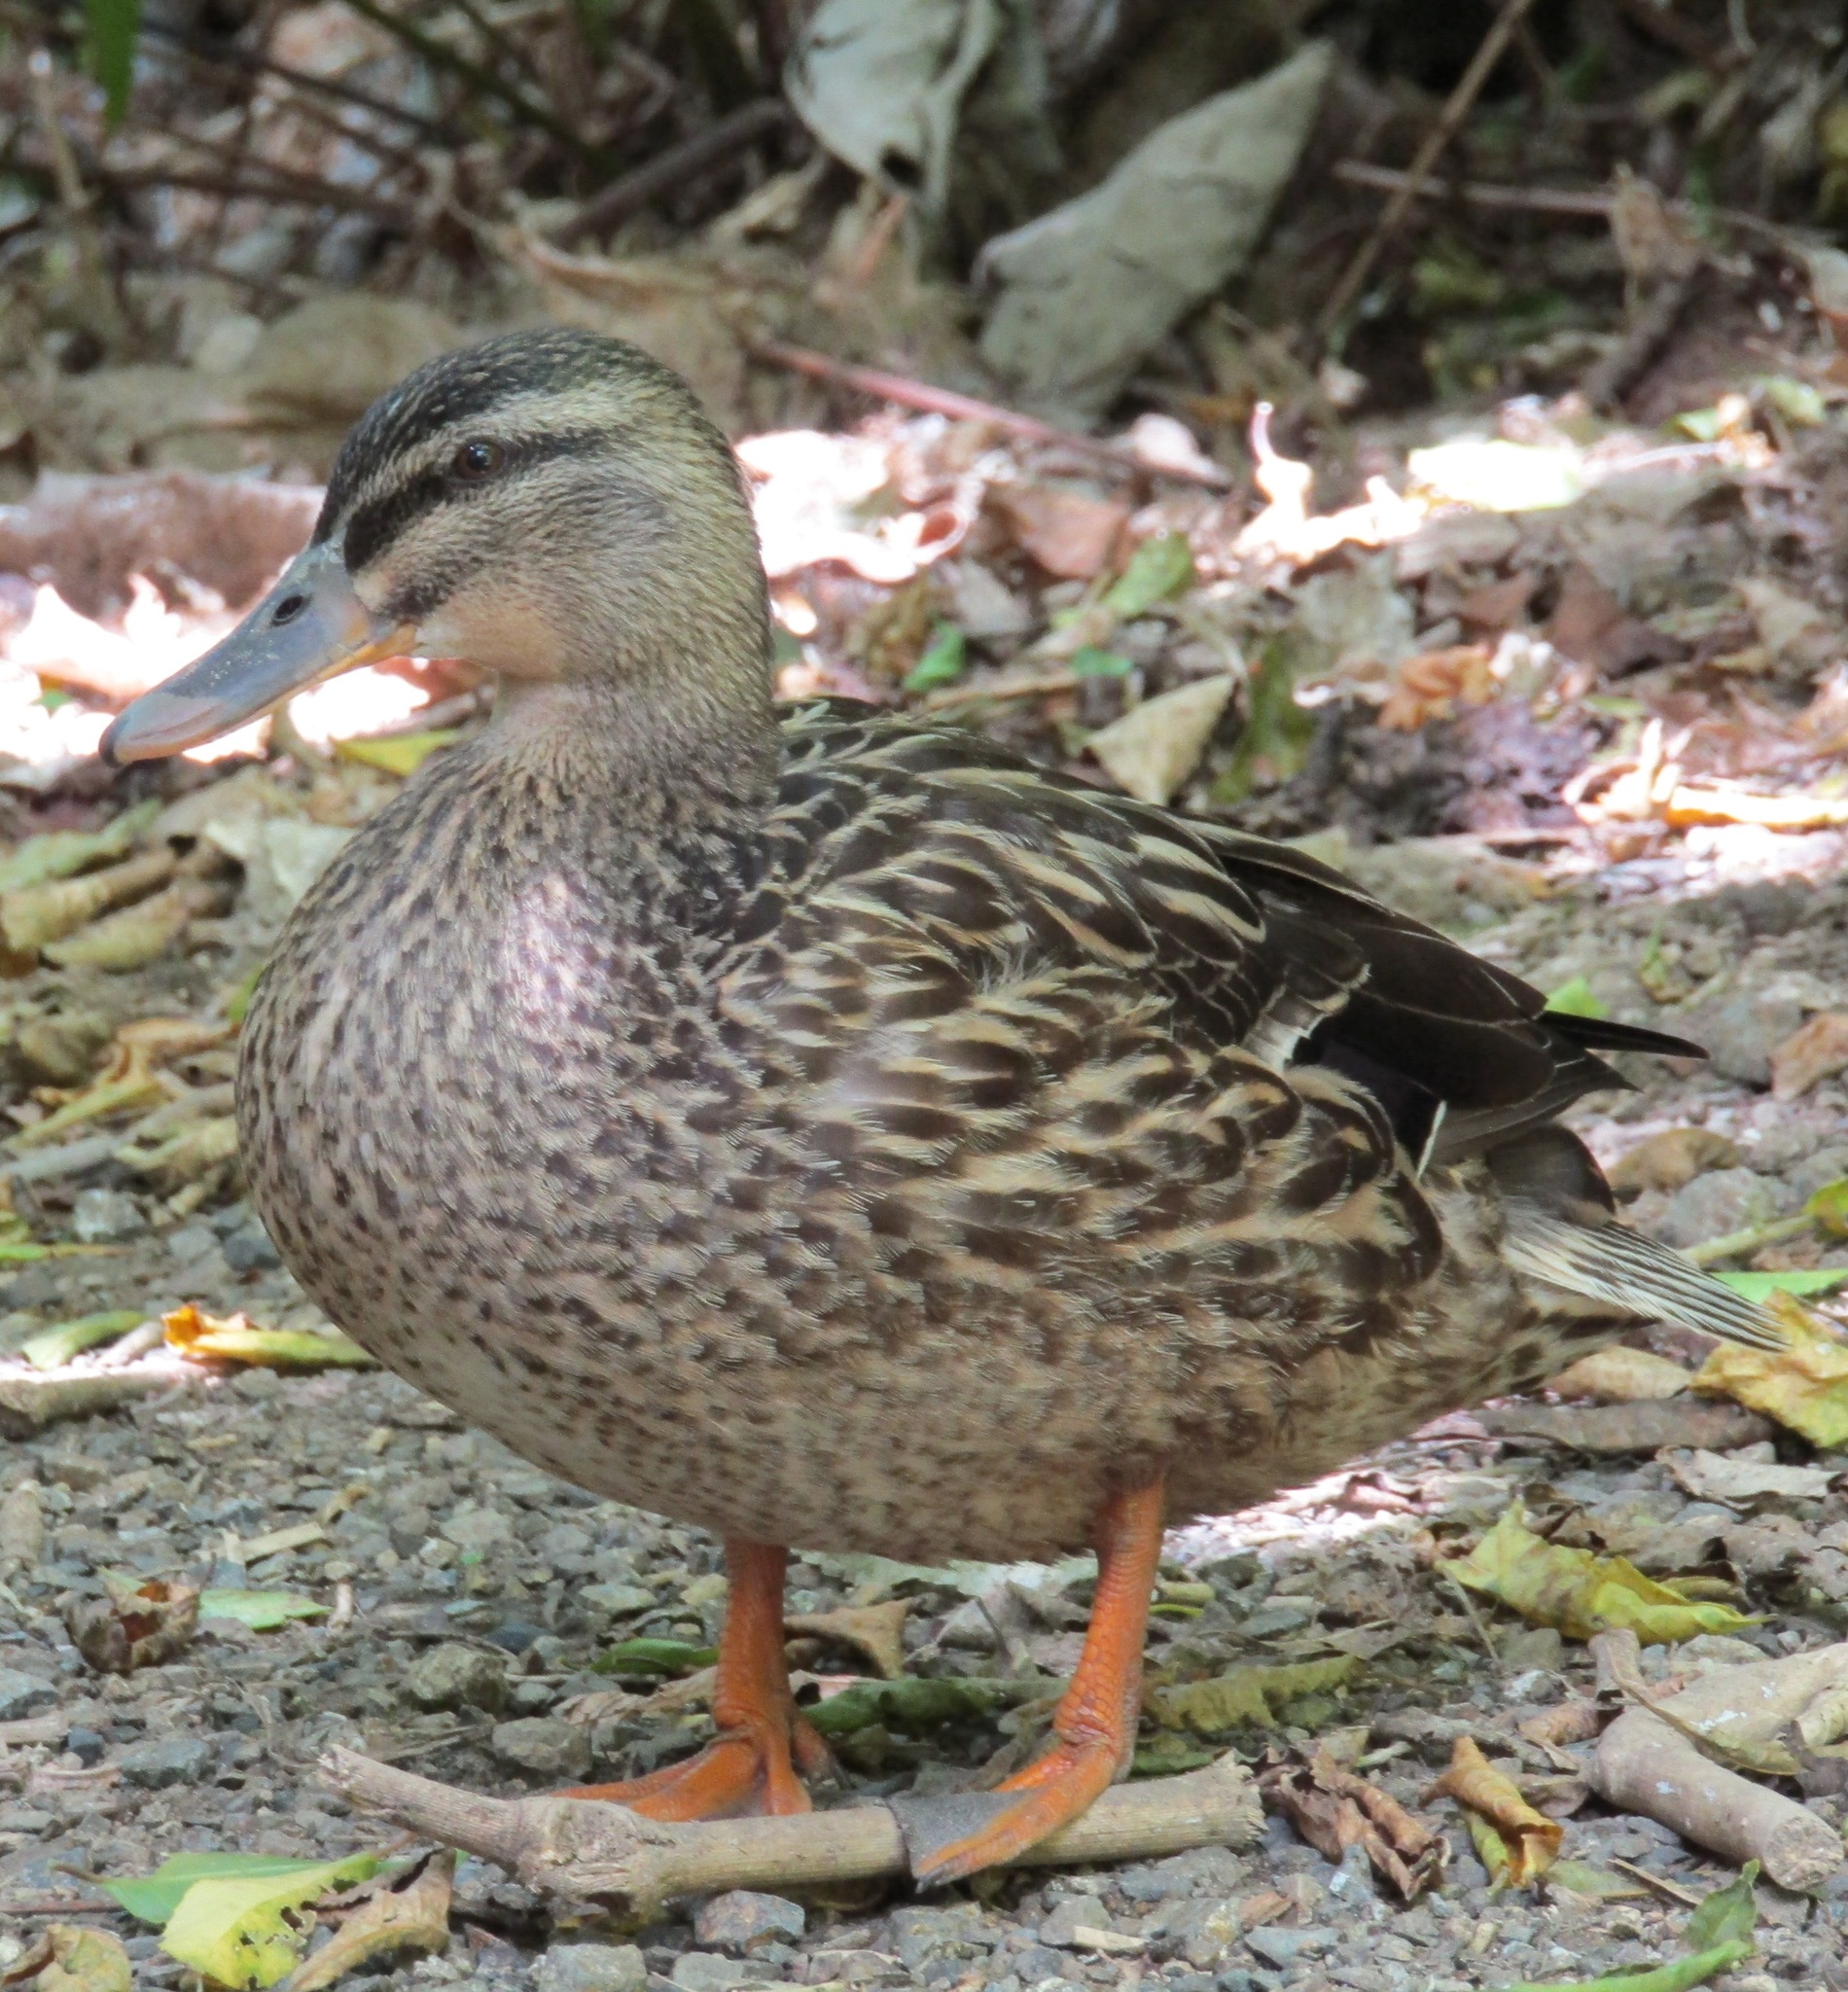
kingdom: Animalia
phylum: Chordata
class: Aves
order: Anseriformes
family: Anatidae
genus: Anas
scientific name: Anas
